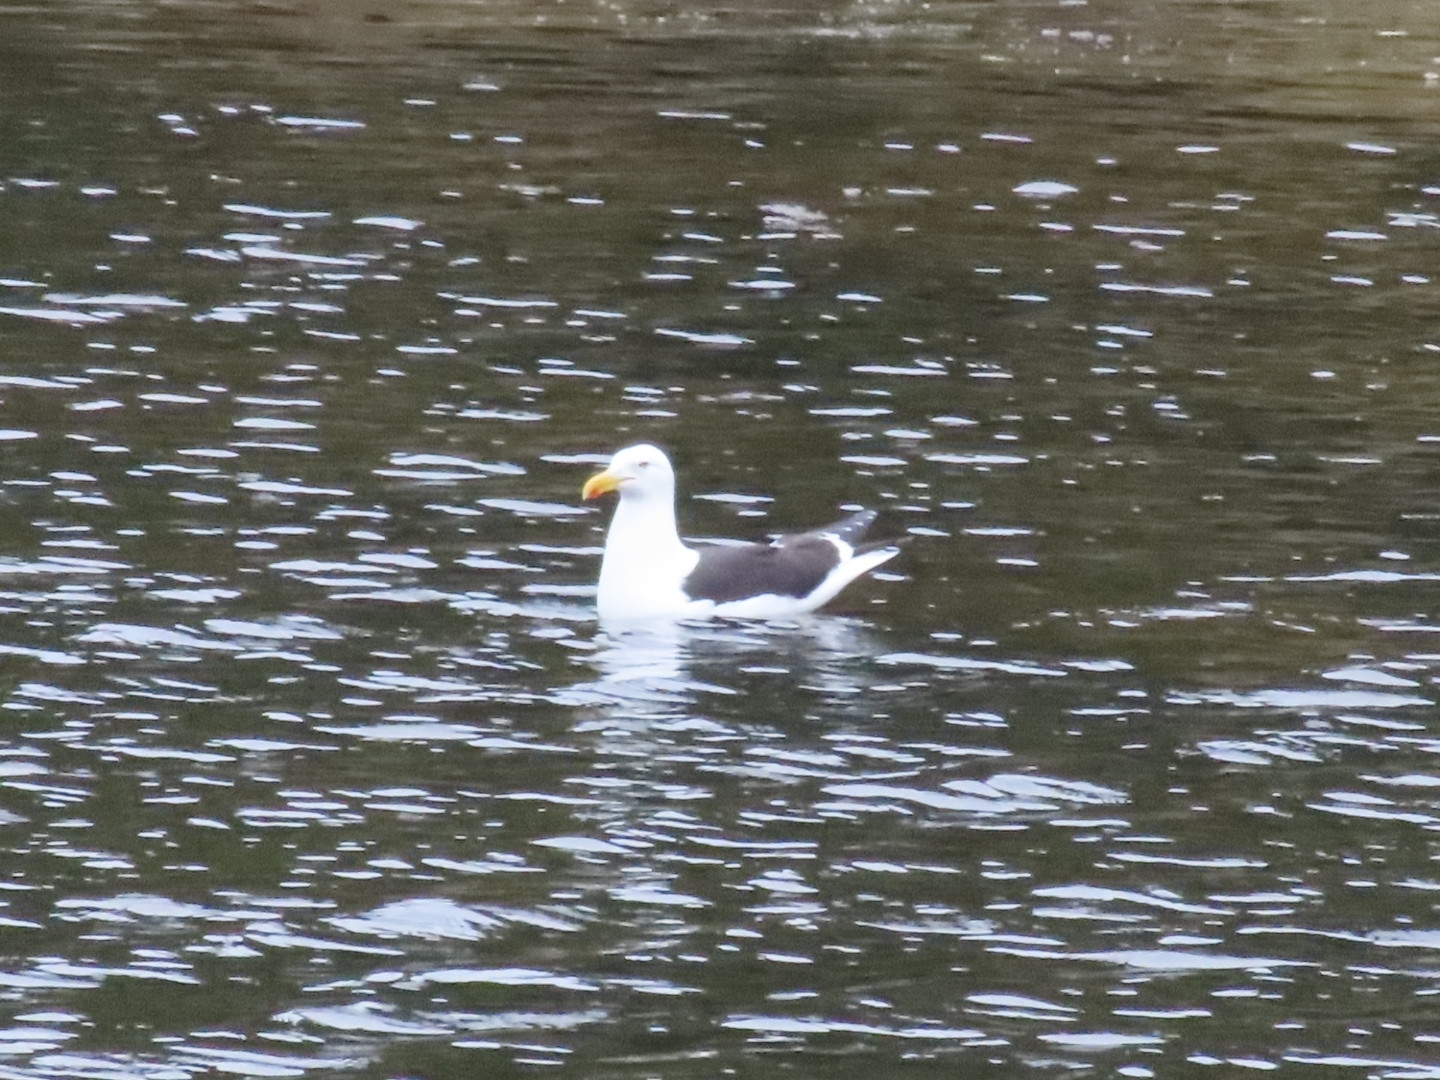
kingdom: Animalia
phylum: Chordata
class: Aves
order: Charadriiformes
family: Laridae
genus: Larus
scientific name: Larus dominicanus
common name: Kelp gull
